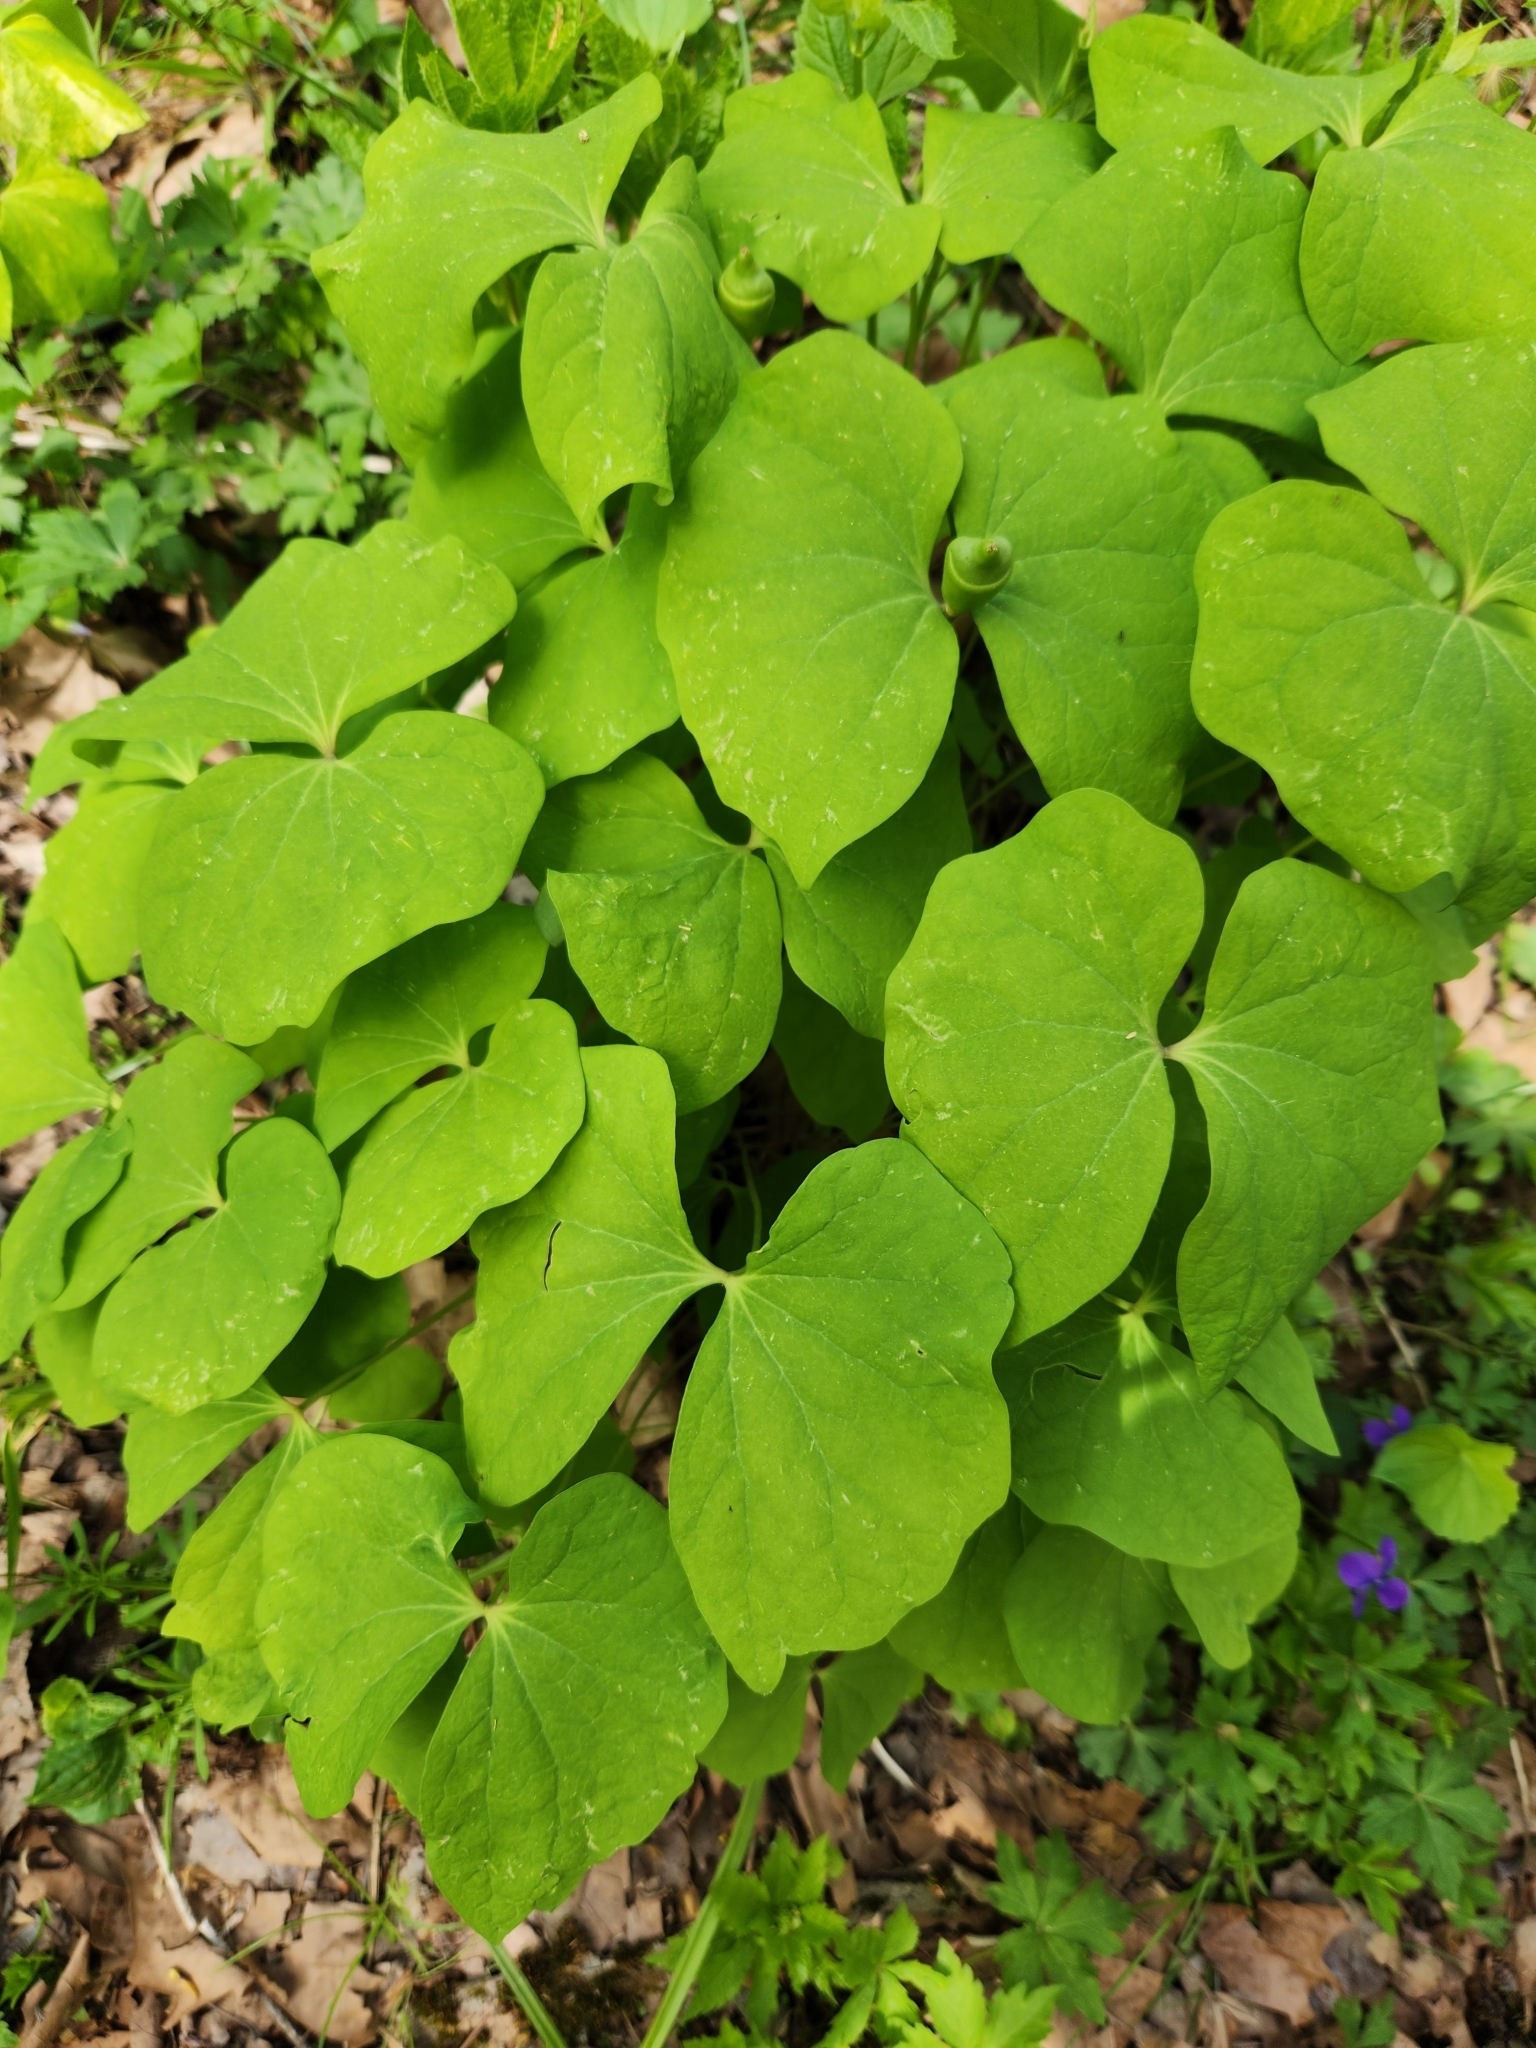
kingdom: Plantae
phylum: Tracheophyta
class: Magnoliopsida
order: Ranunculales
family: Berberidaceae
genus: Jeffersonia
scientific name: Jeffersonia diphylla
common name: Rheumatism-root
